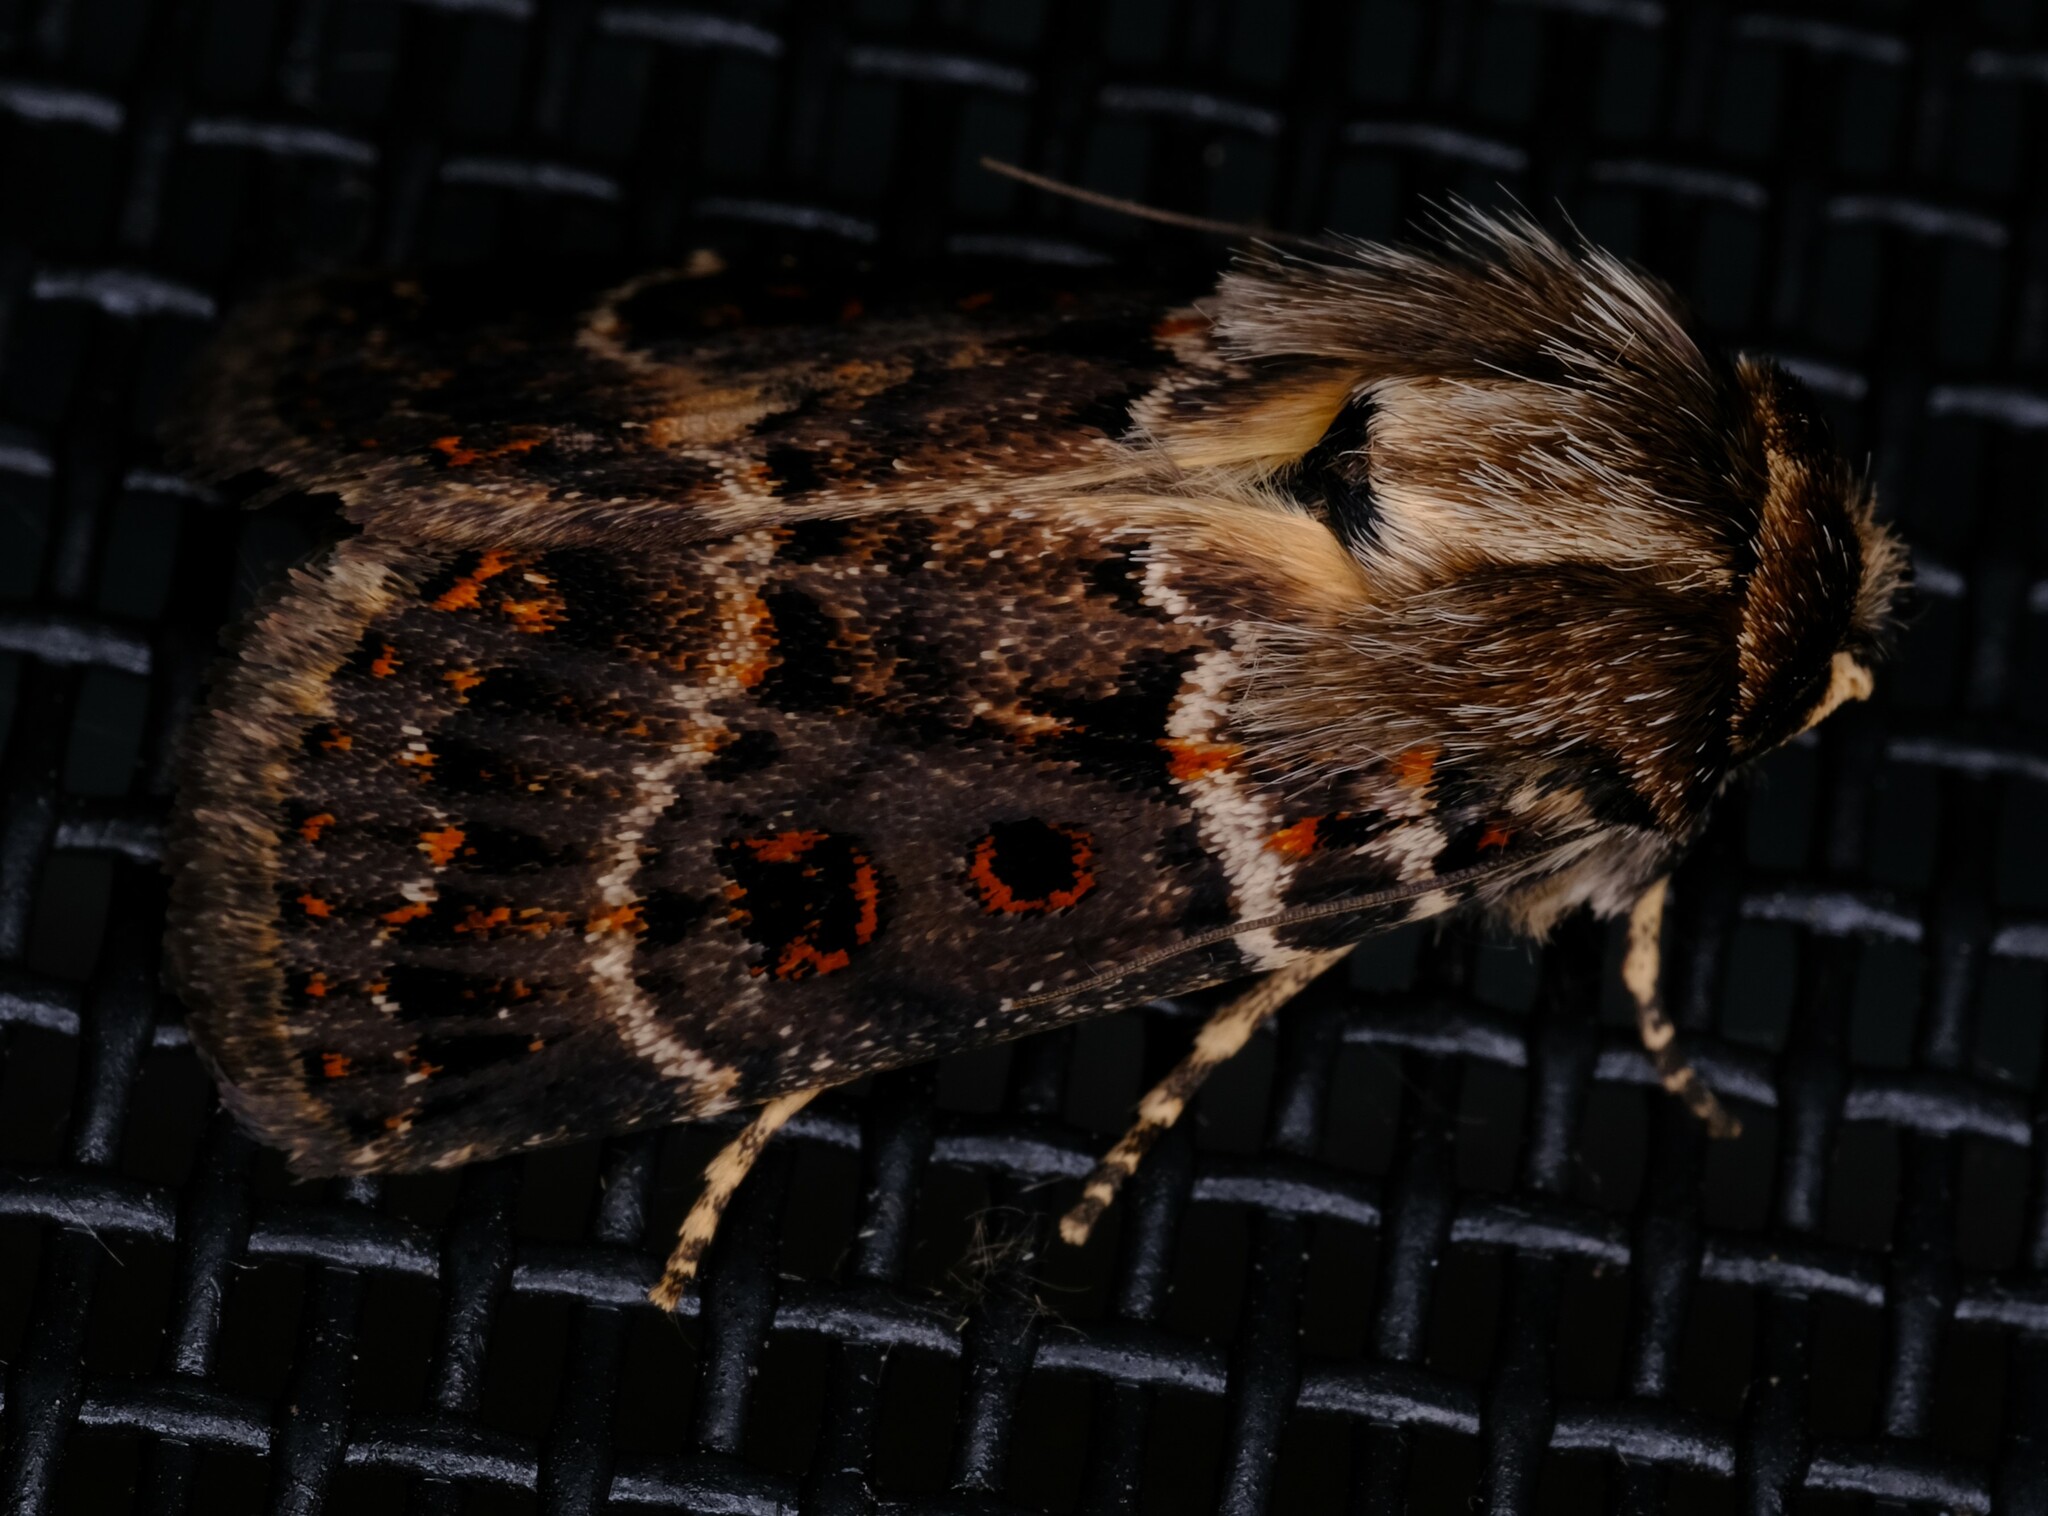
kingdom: Animalia
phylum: Arthropoda
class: Insecta
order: Lepidoptera
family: Noctuidae
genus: Proteuxoa
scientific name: Proteuxoa sanguinipuncta
